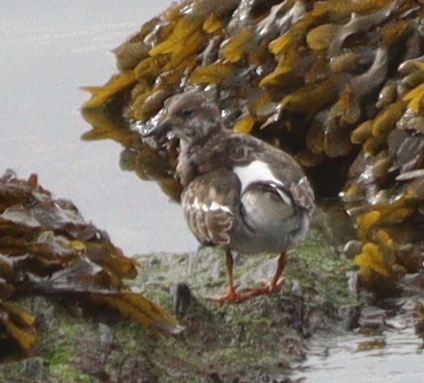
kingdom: Animalia
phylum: Chordata
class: Aves
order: Charadriiformes
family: Scolopacidae
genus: Arenaria
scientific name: Arenaria interpres
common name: Ruddy turnstone
